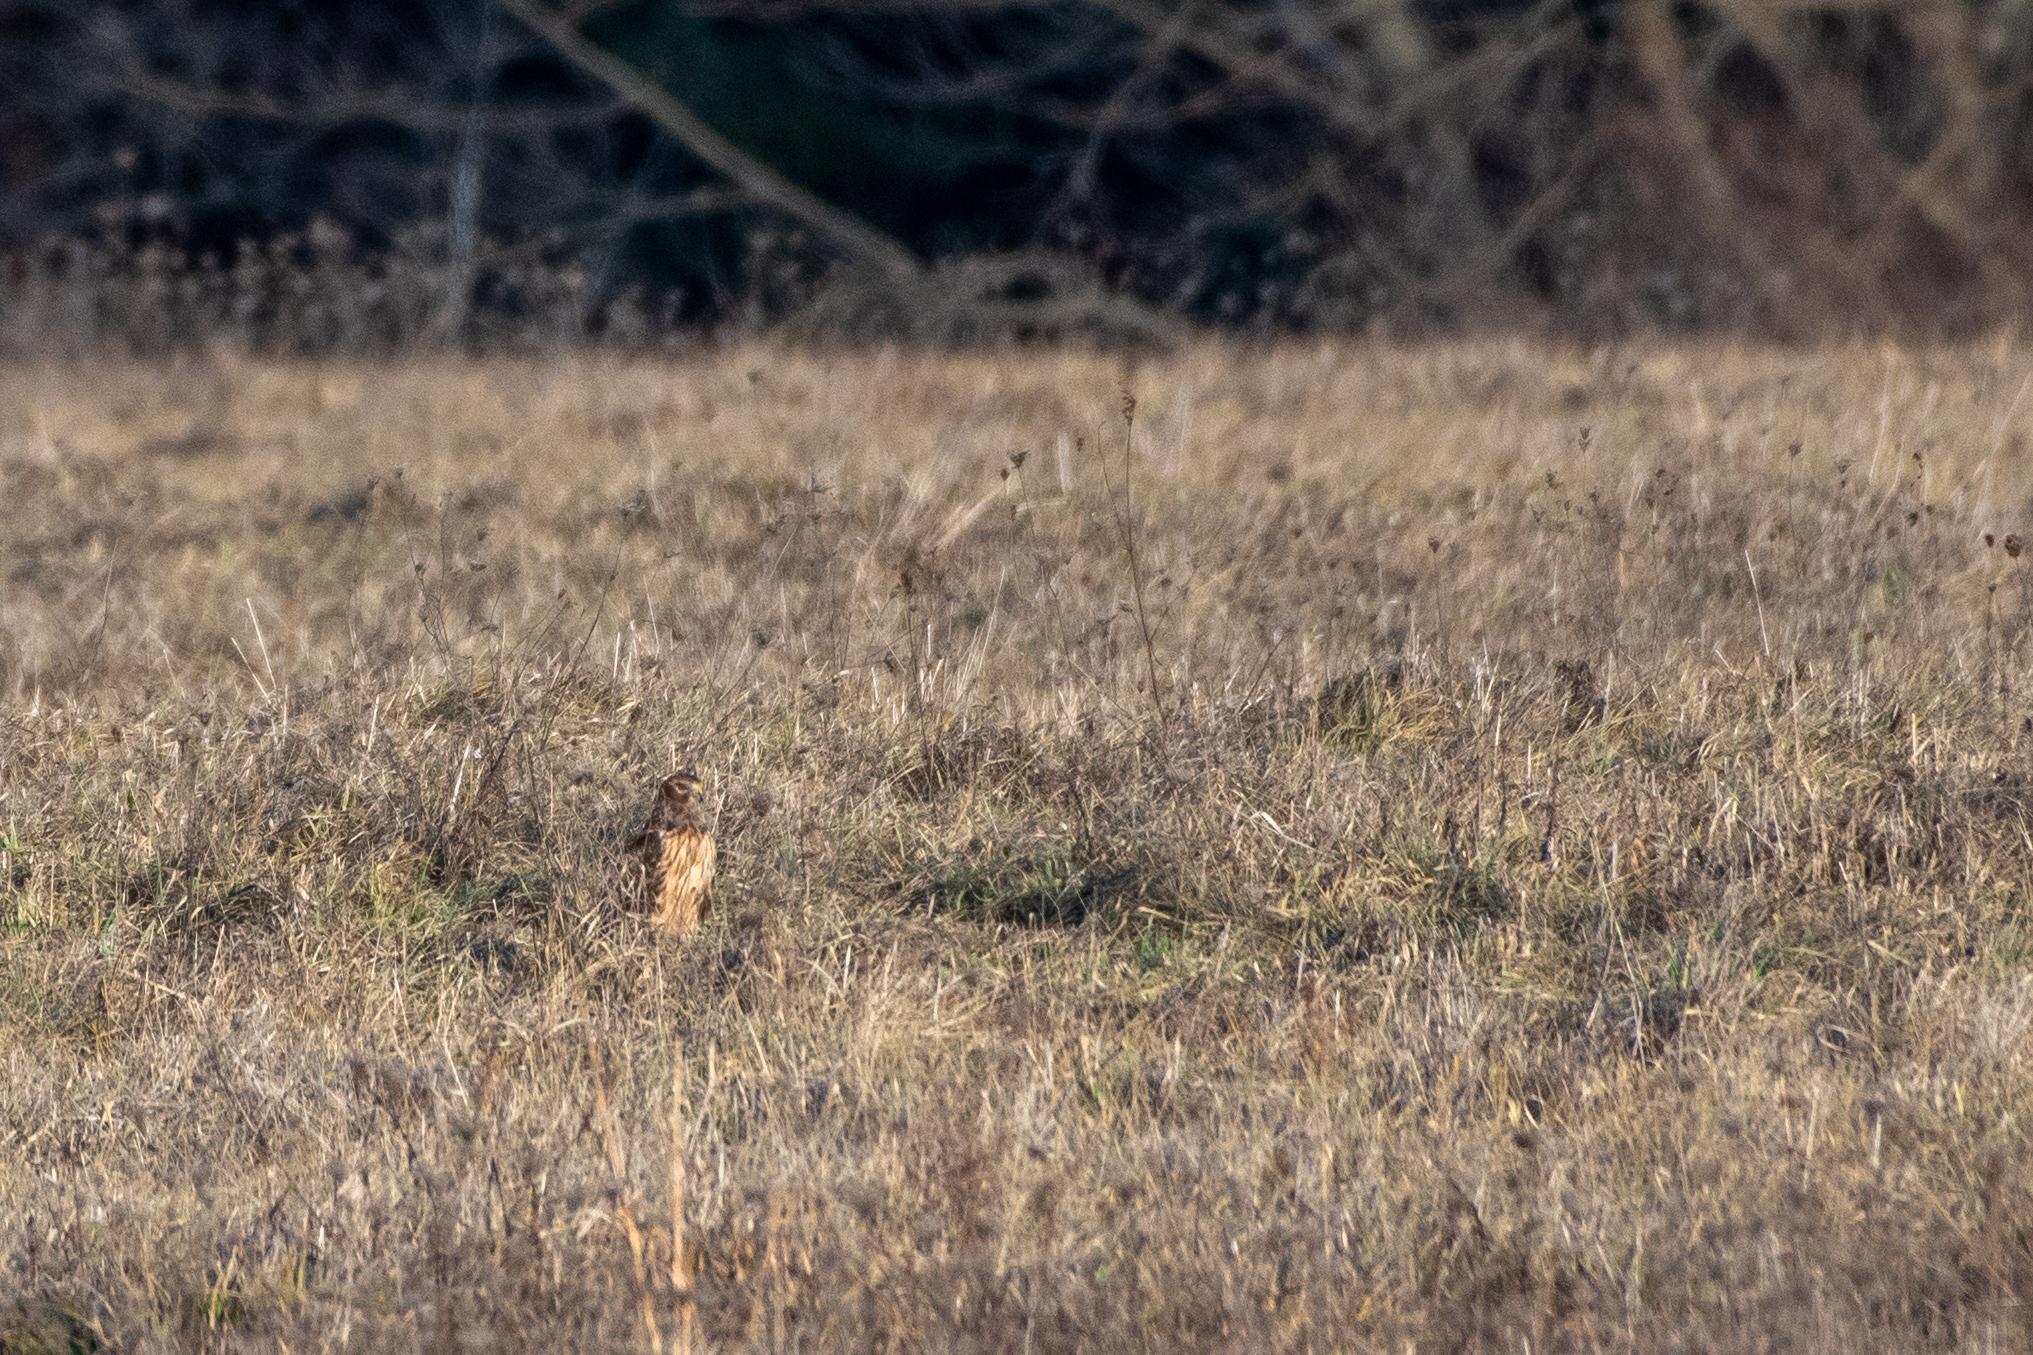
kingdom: Animalia
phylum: Chordata
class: Aves
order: Accipitriformes
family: Accipitridae
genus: Circus
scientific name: Circus cyaneus
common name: Hen harrier
